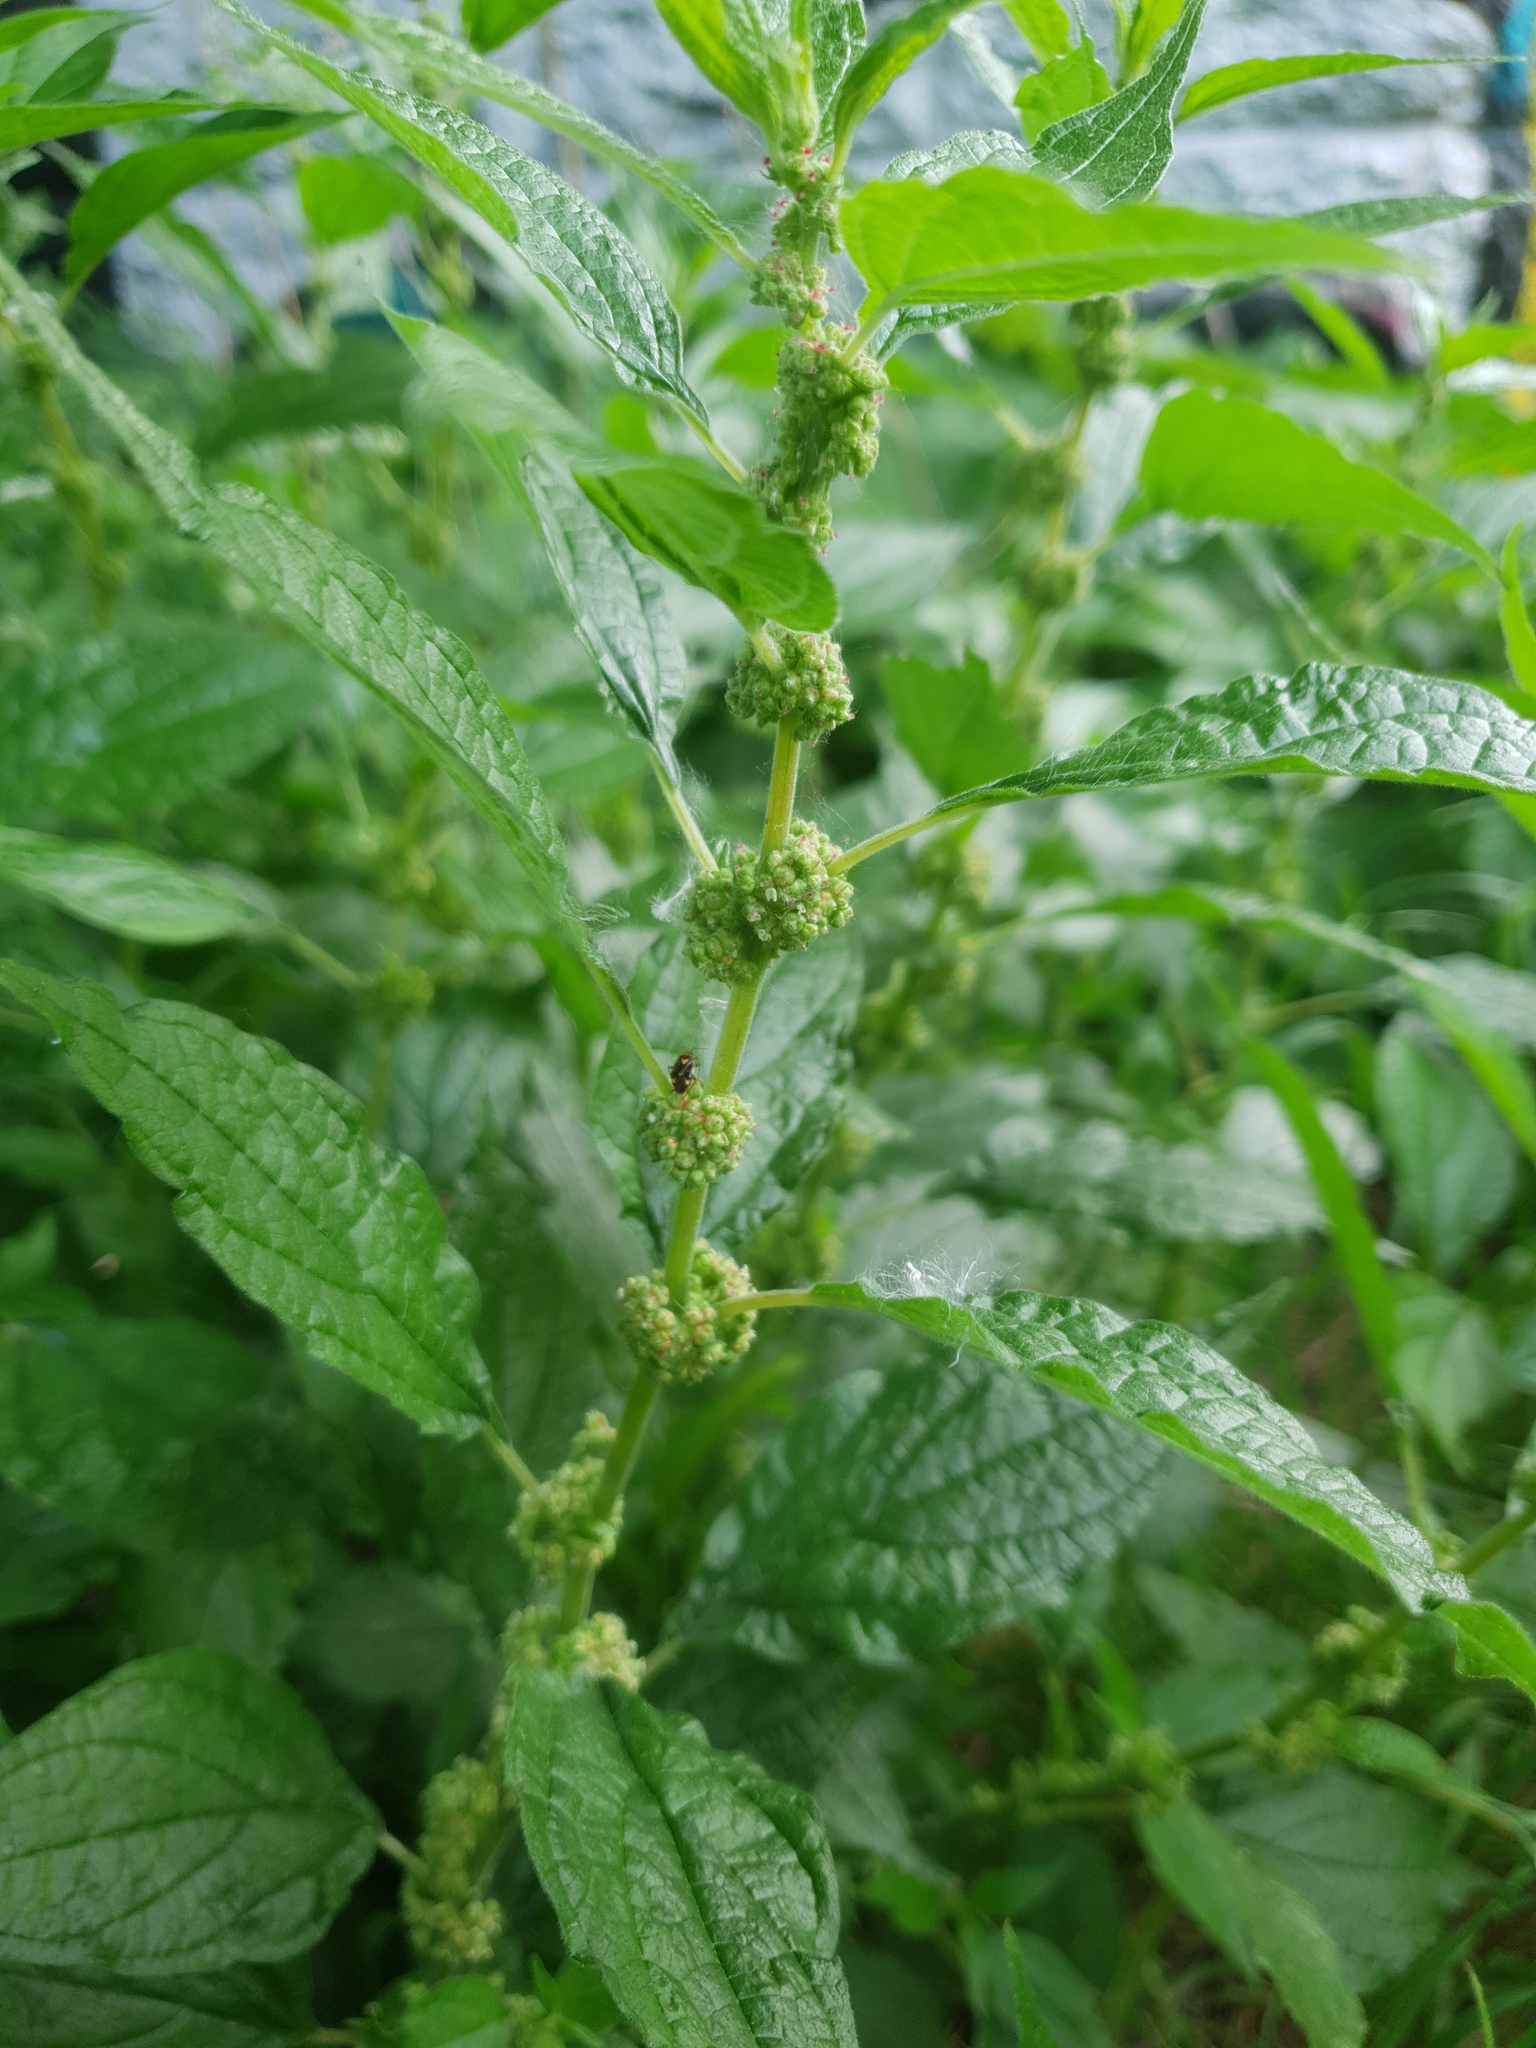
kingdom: Plantae
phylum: Tracheophyta
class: Magnoliopsida
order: Rosales
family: Urticaceae
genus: Parietaria
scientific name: Parietaria officinalis
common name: Eastern pellitory-of-the-wall
